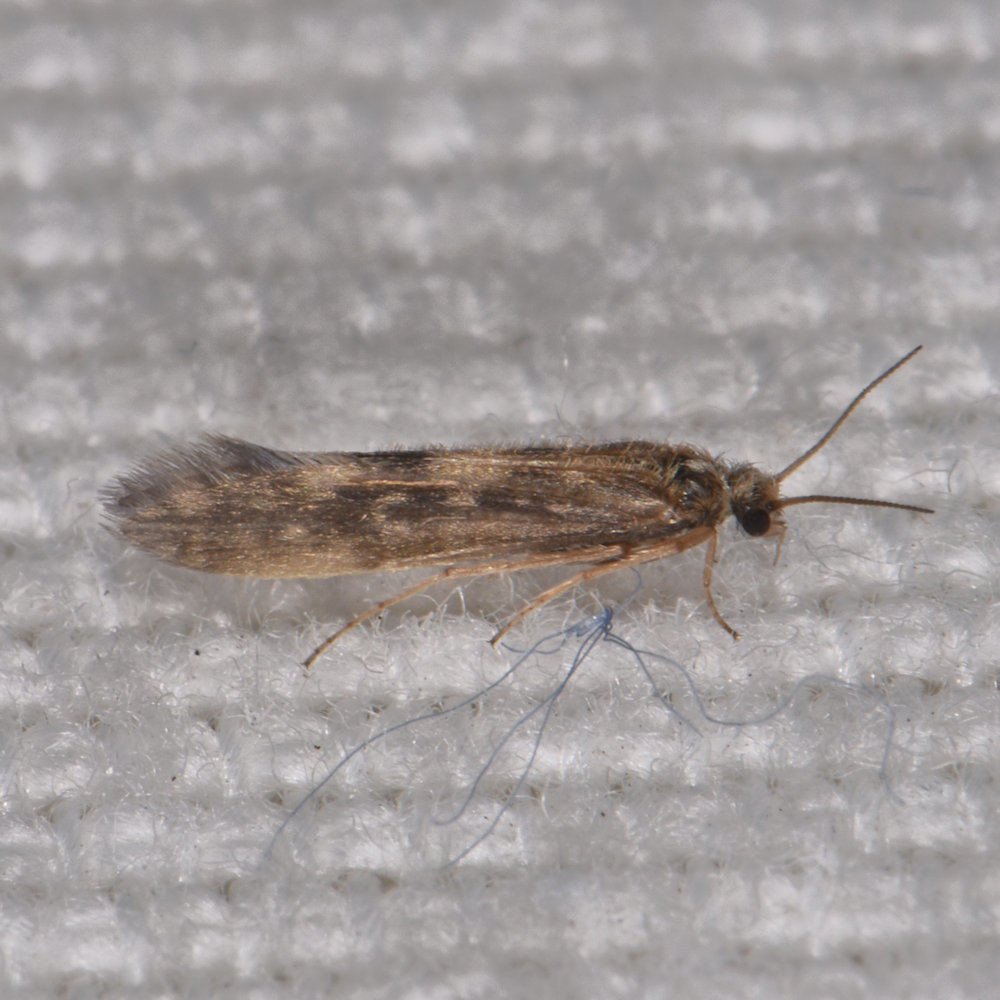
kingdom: Animalia
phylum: Arthropoda
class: Insecta
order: Trichoptera
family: Hydroptilidae
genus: Agraylea
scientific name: Agraylea multipunctata
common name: Salt and pepper microcaddisfly
